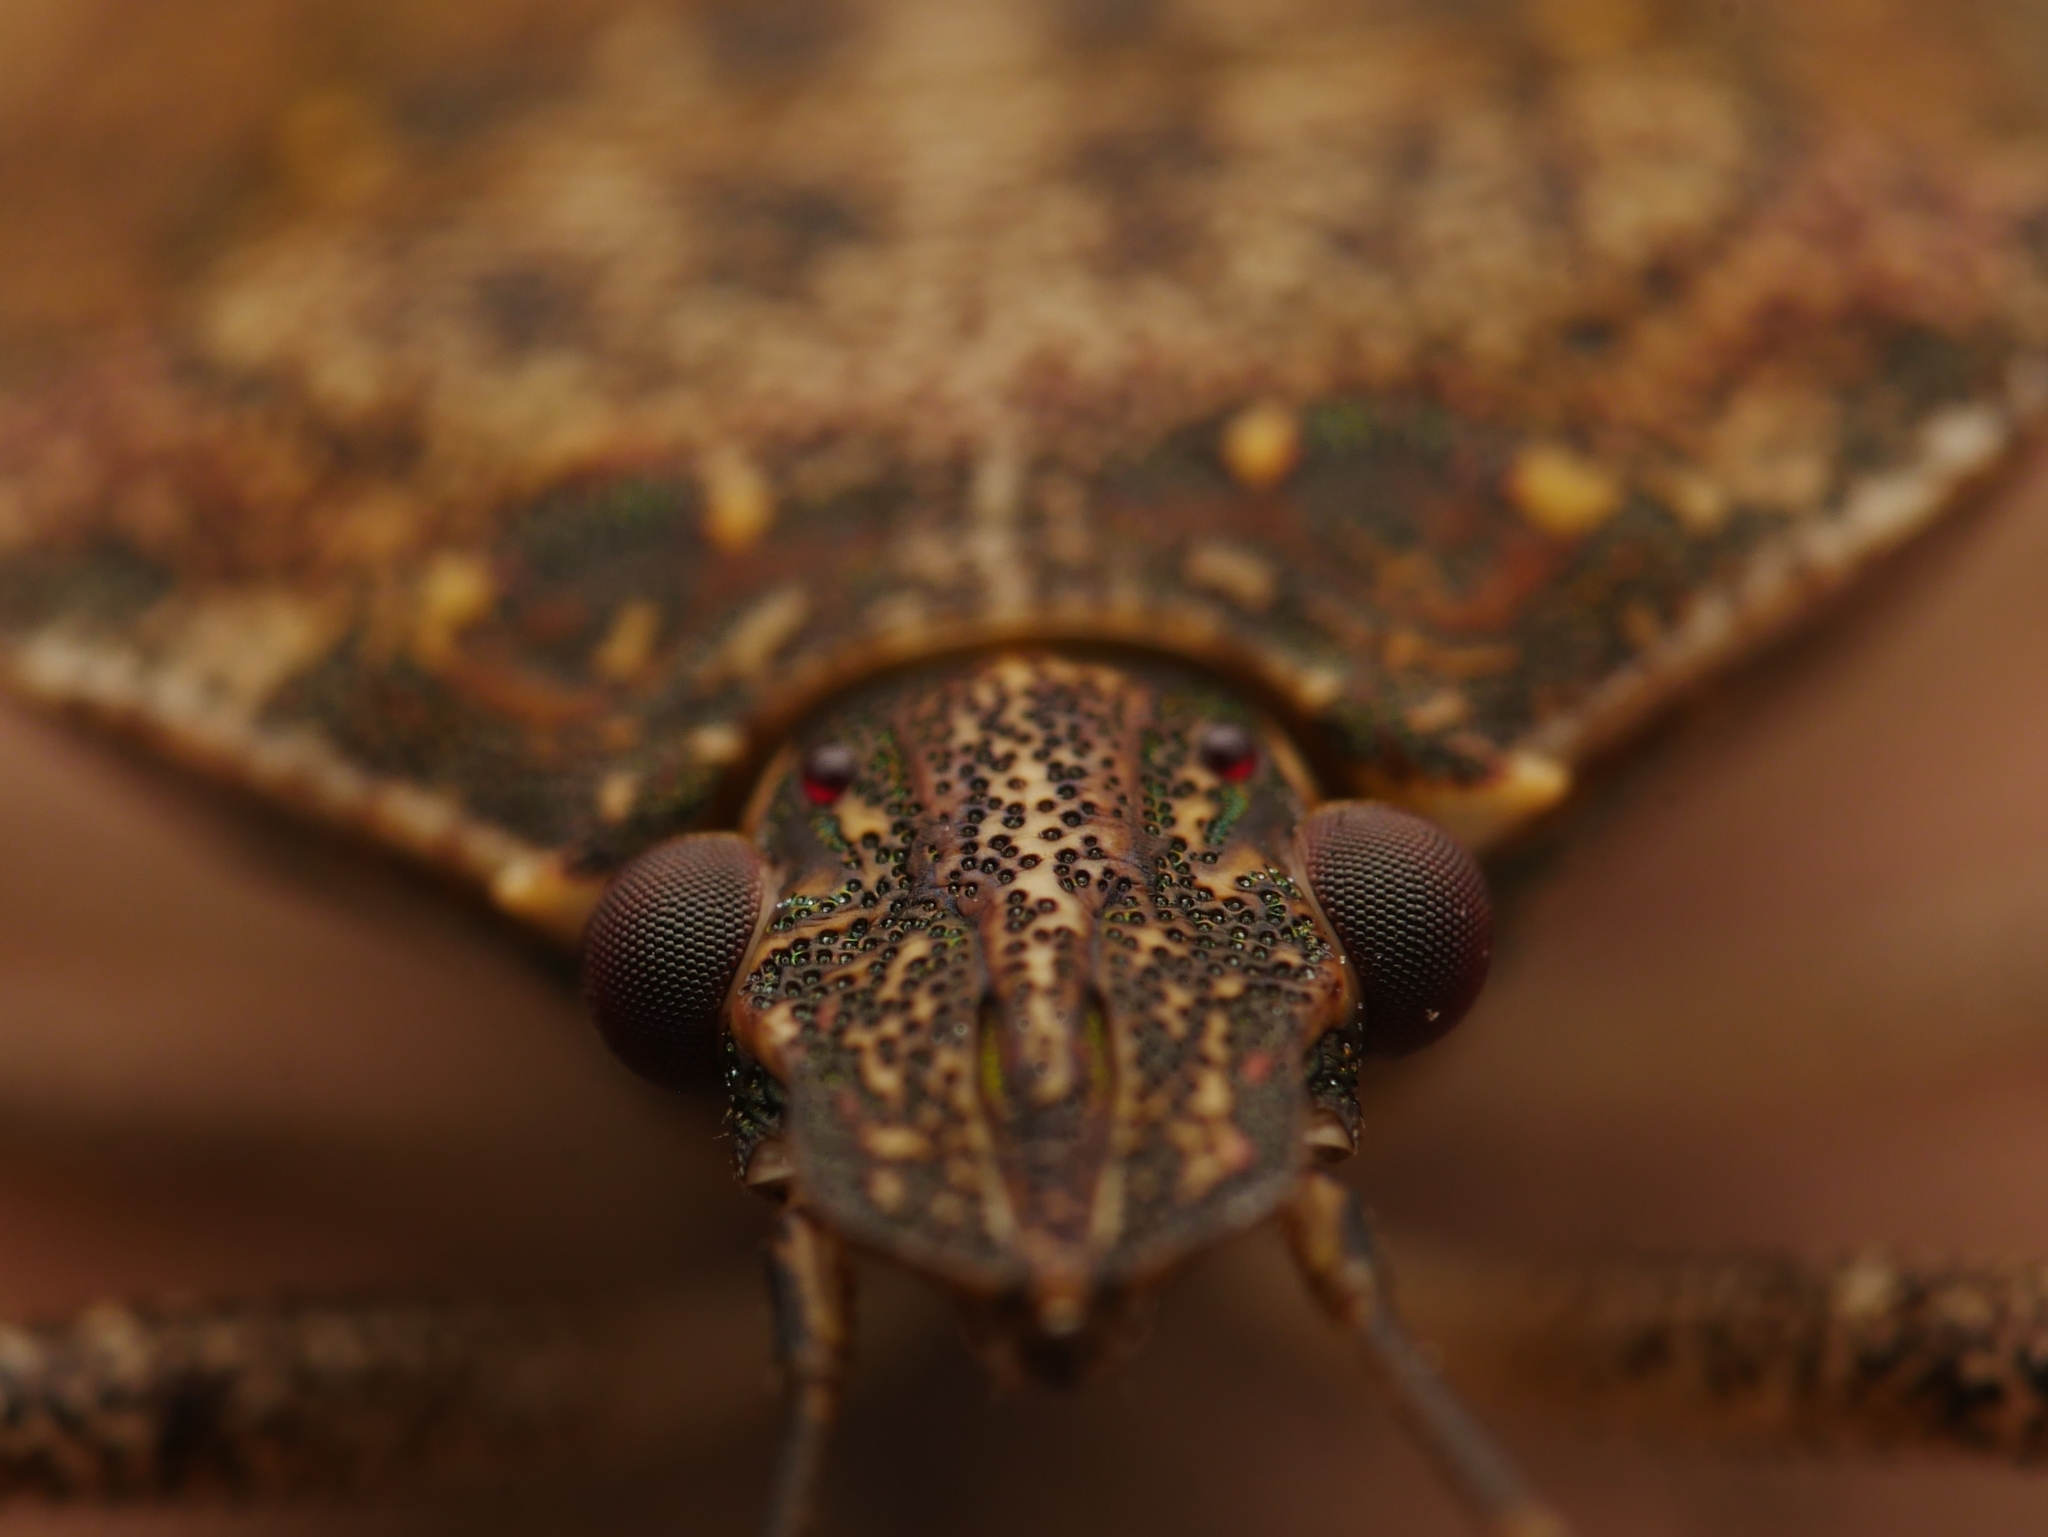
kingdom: Animalia
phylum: Arthropoda
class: Insecta
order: Hemiptera
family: Pentatomidae
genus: Halyomorpha
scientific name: Halyomorpha halys
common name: Brown marmorated stink bug
